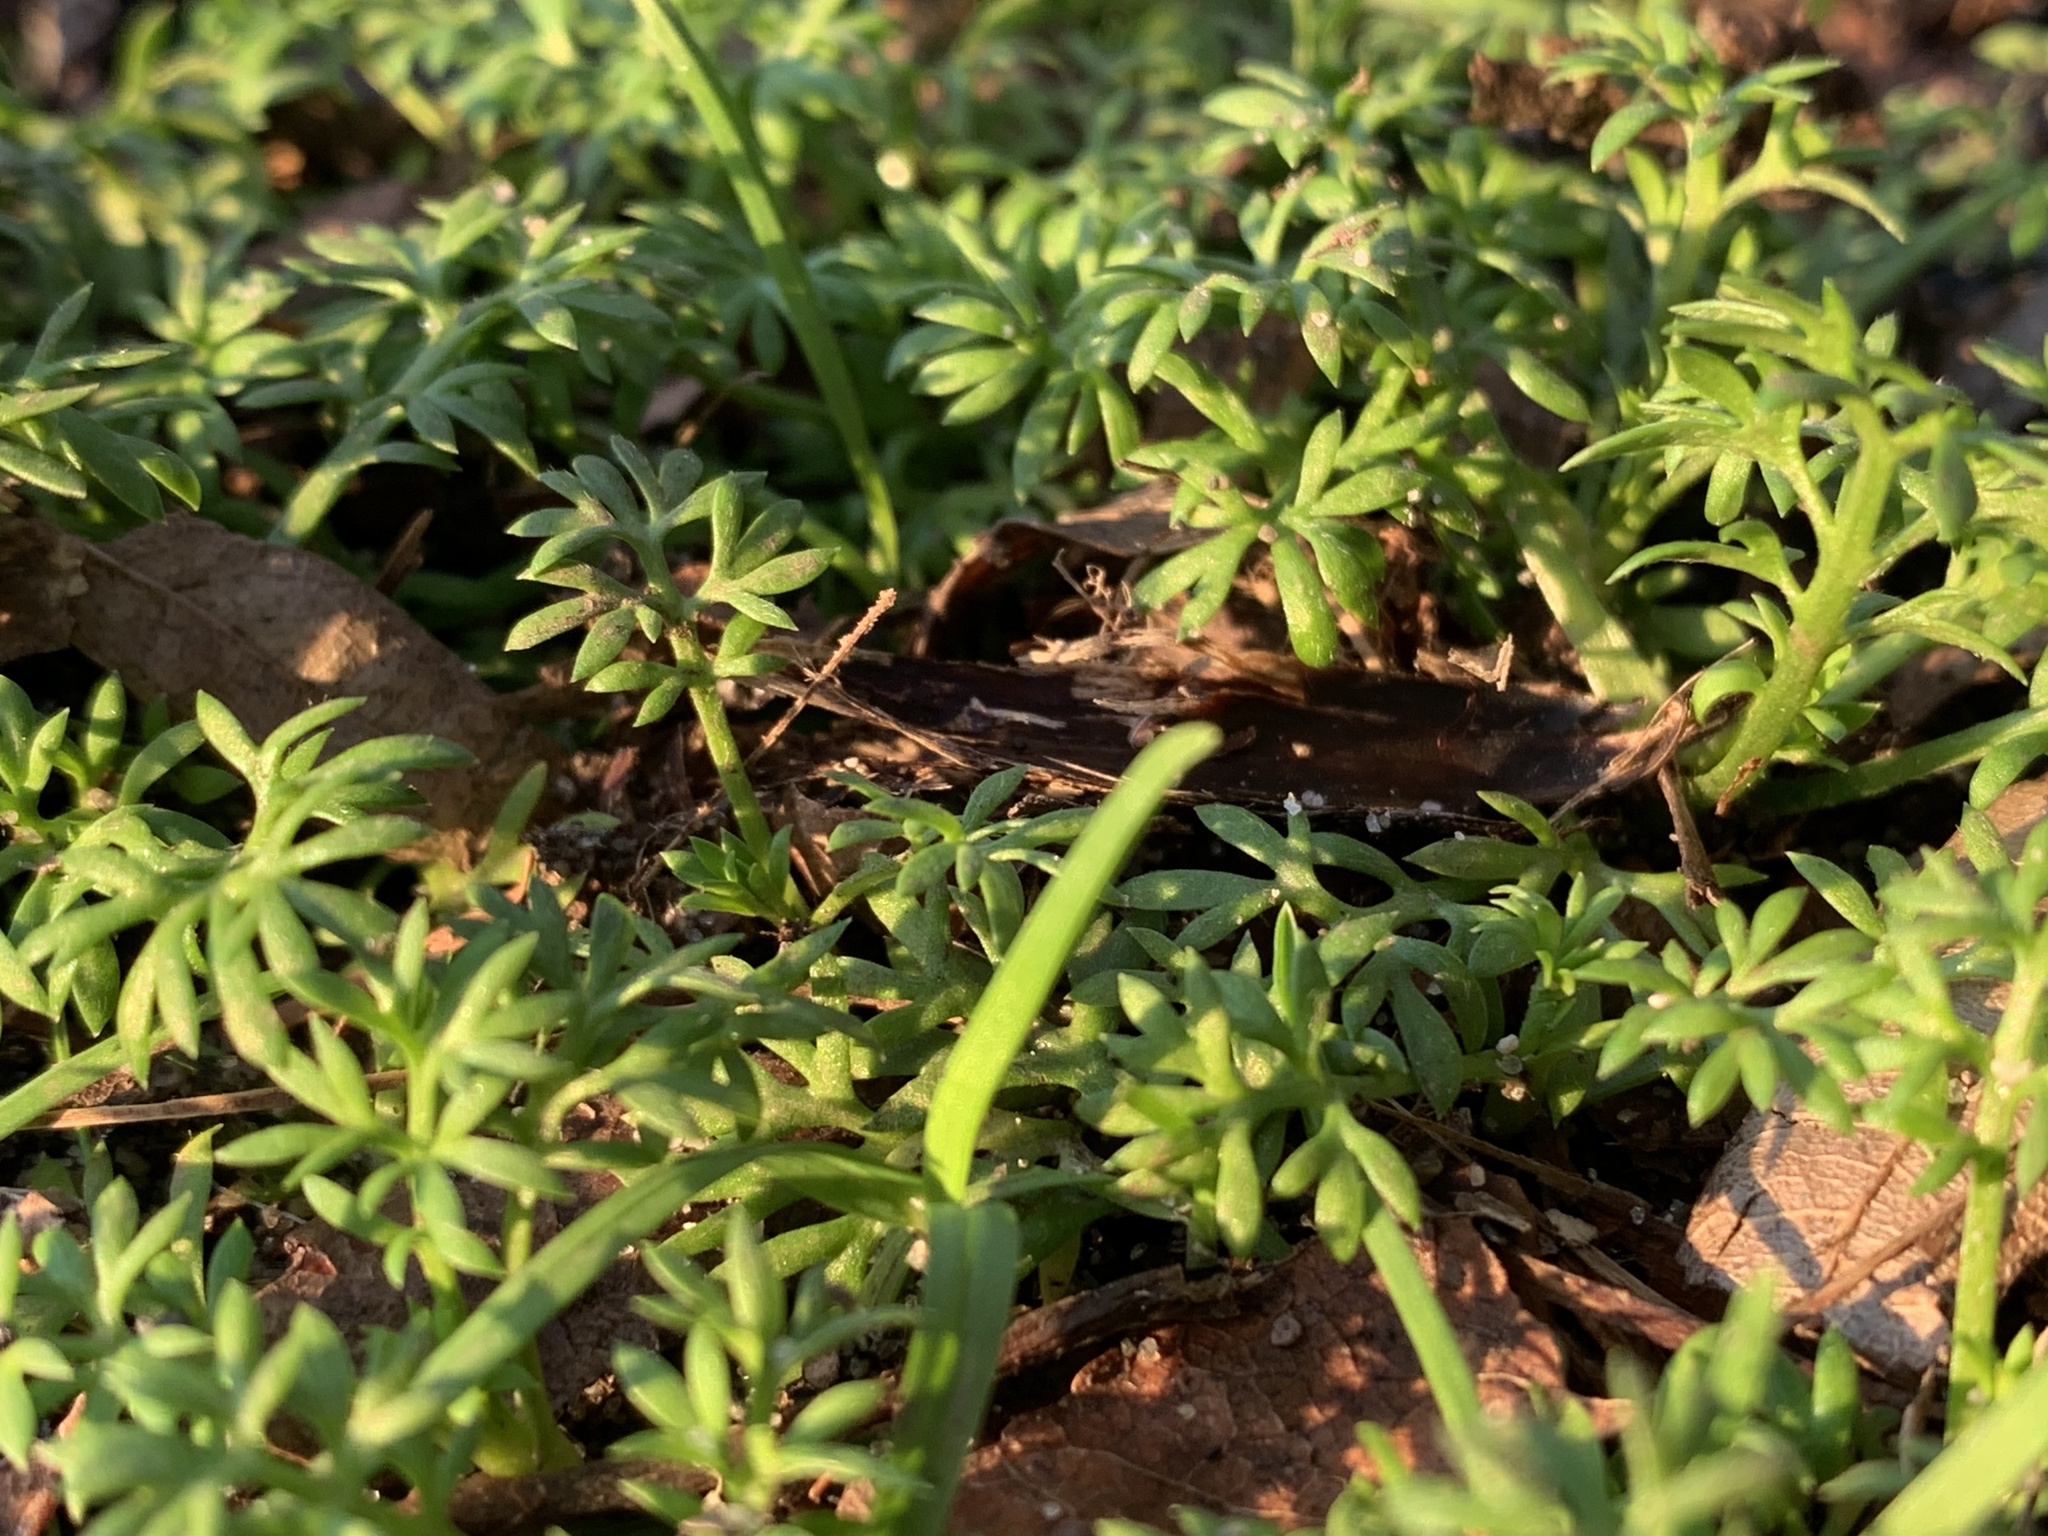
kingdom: Plantae
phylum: Tracheophyta
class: Magnoliopsida
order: Asterales
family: Asteraceae
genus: Soliva
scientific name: Soliva sessilis
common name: Field burrweed
